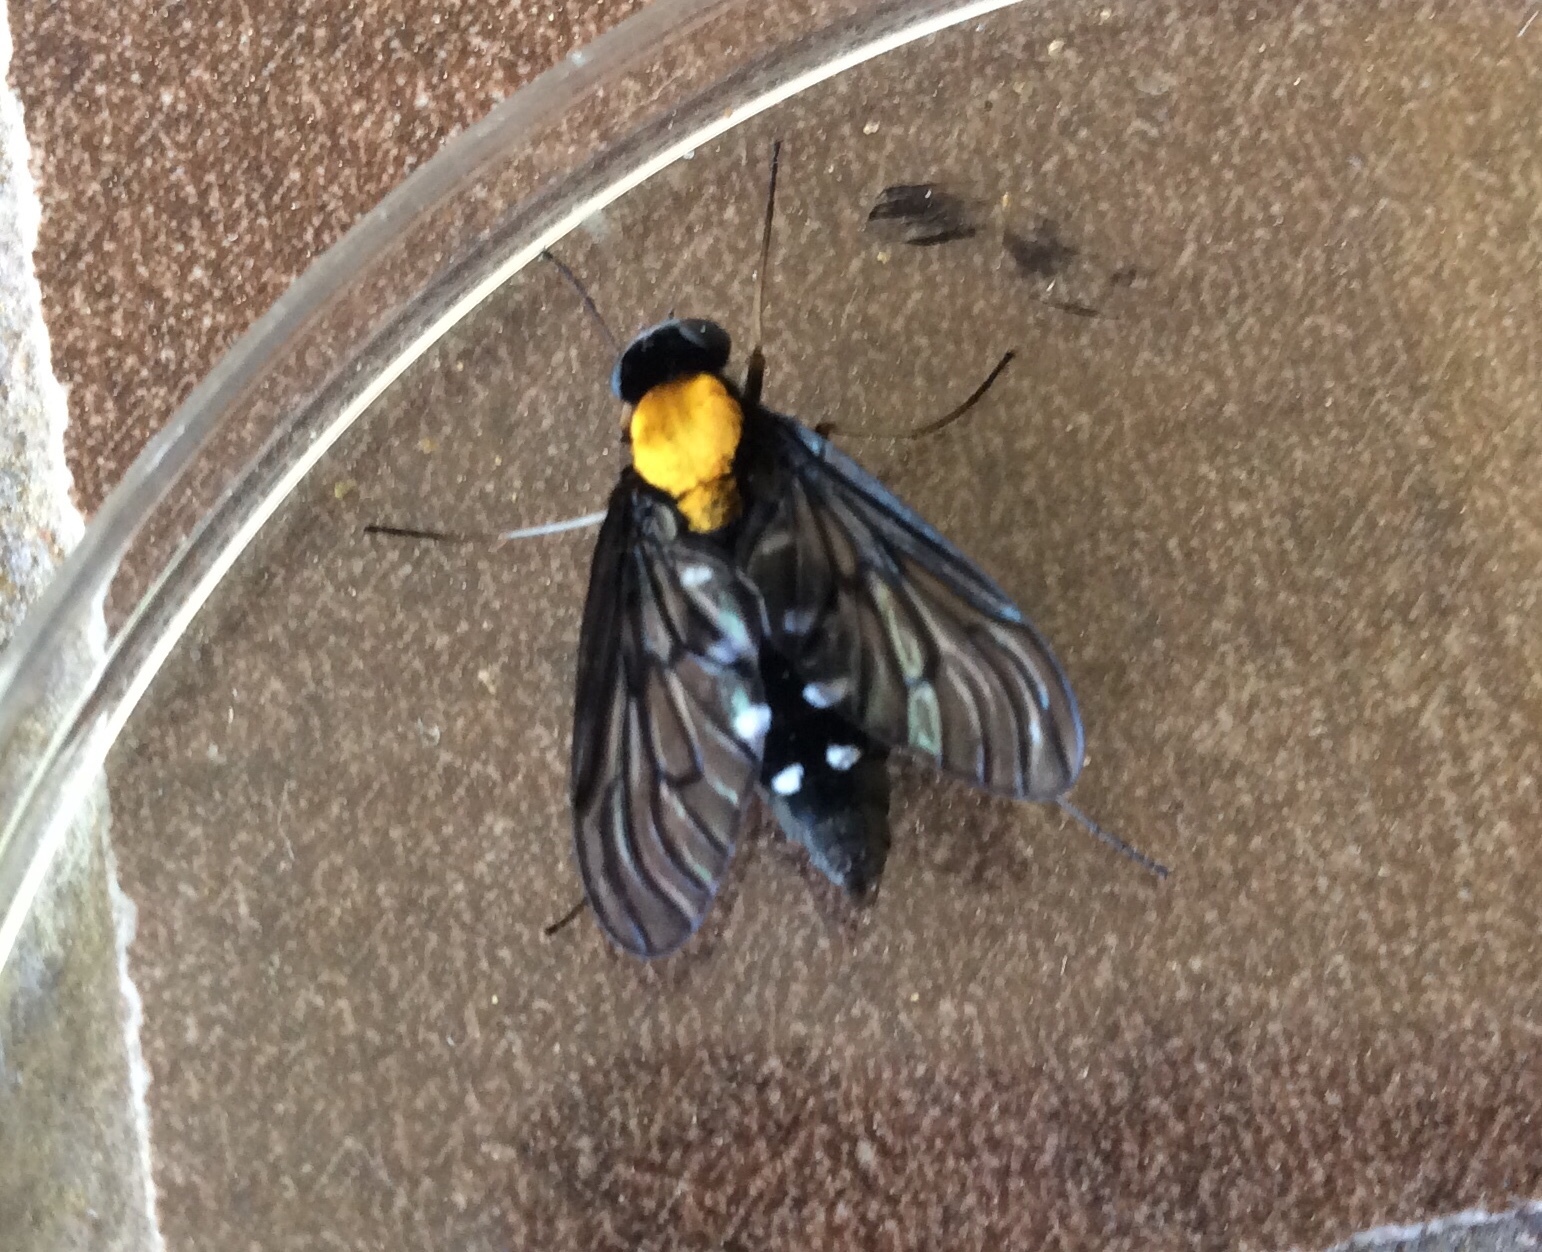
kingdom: Animalia
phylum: Arthropoda
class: Insecta
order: Diptera
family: Rhagionidae
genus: Chrysopilus
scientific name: Chrysopilus thoracicus
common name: Golden-backed snipe fly
